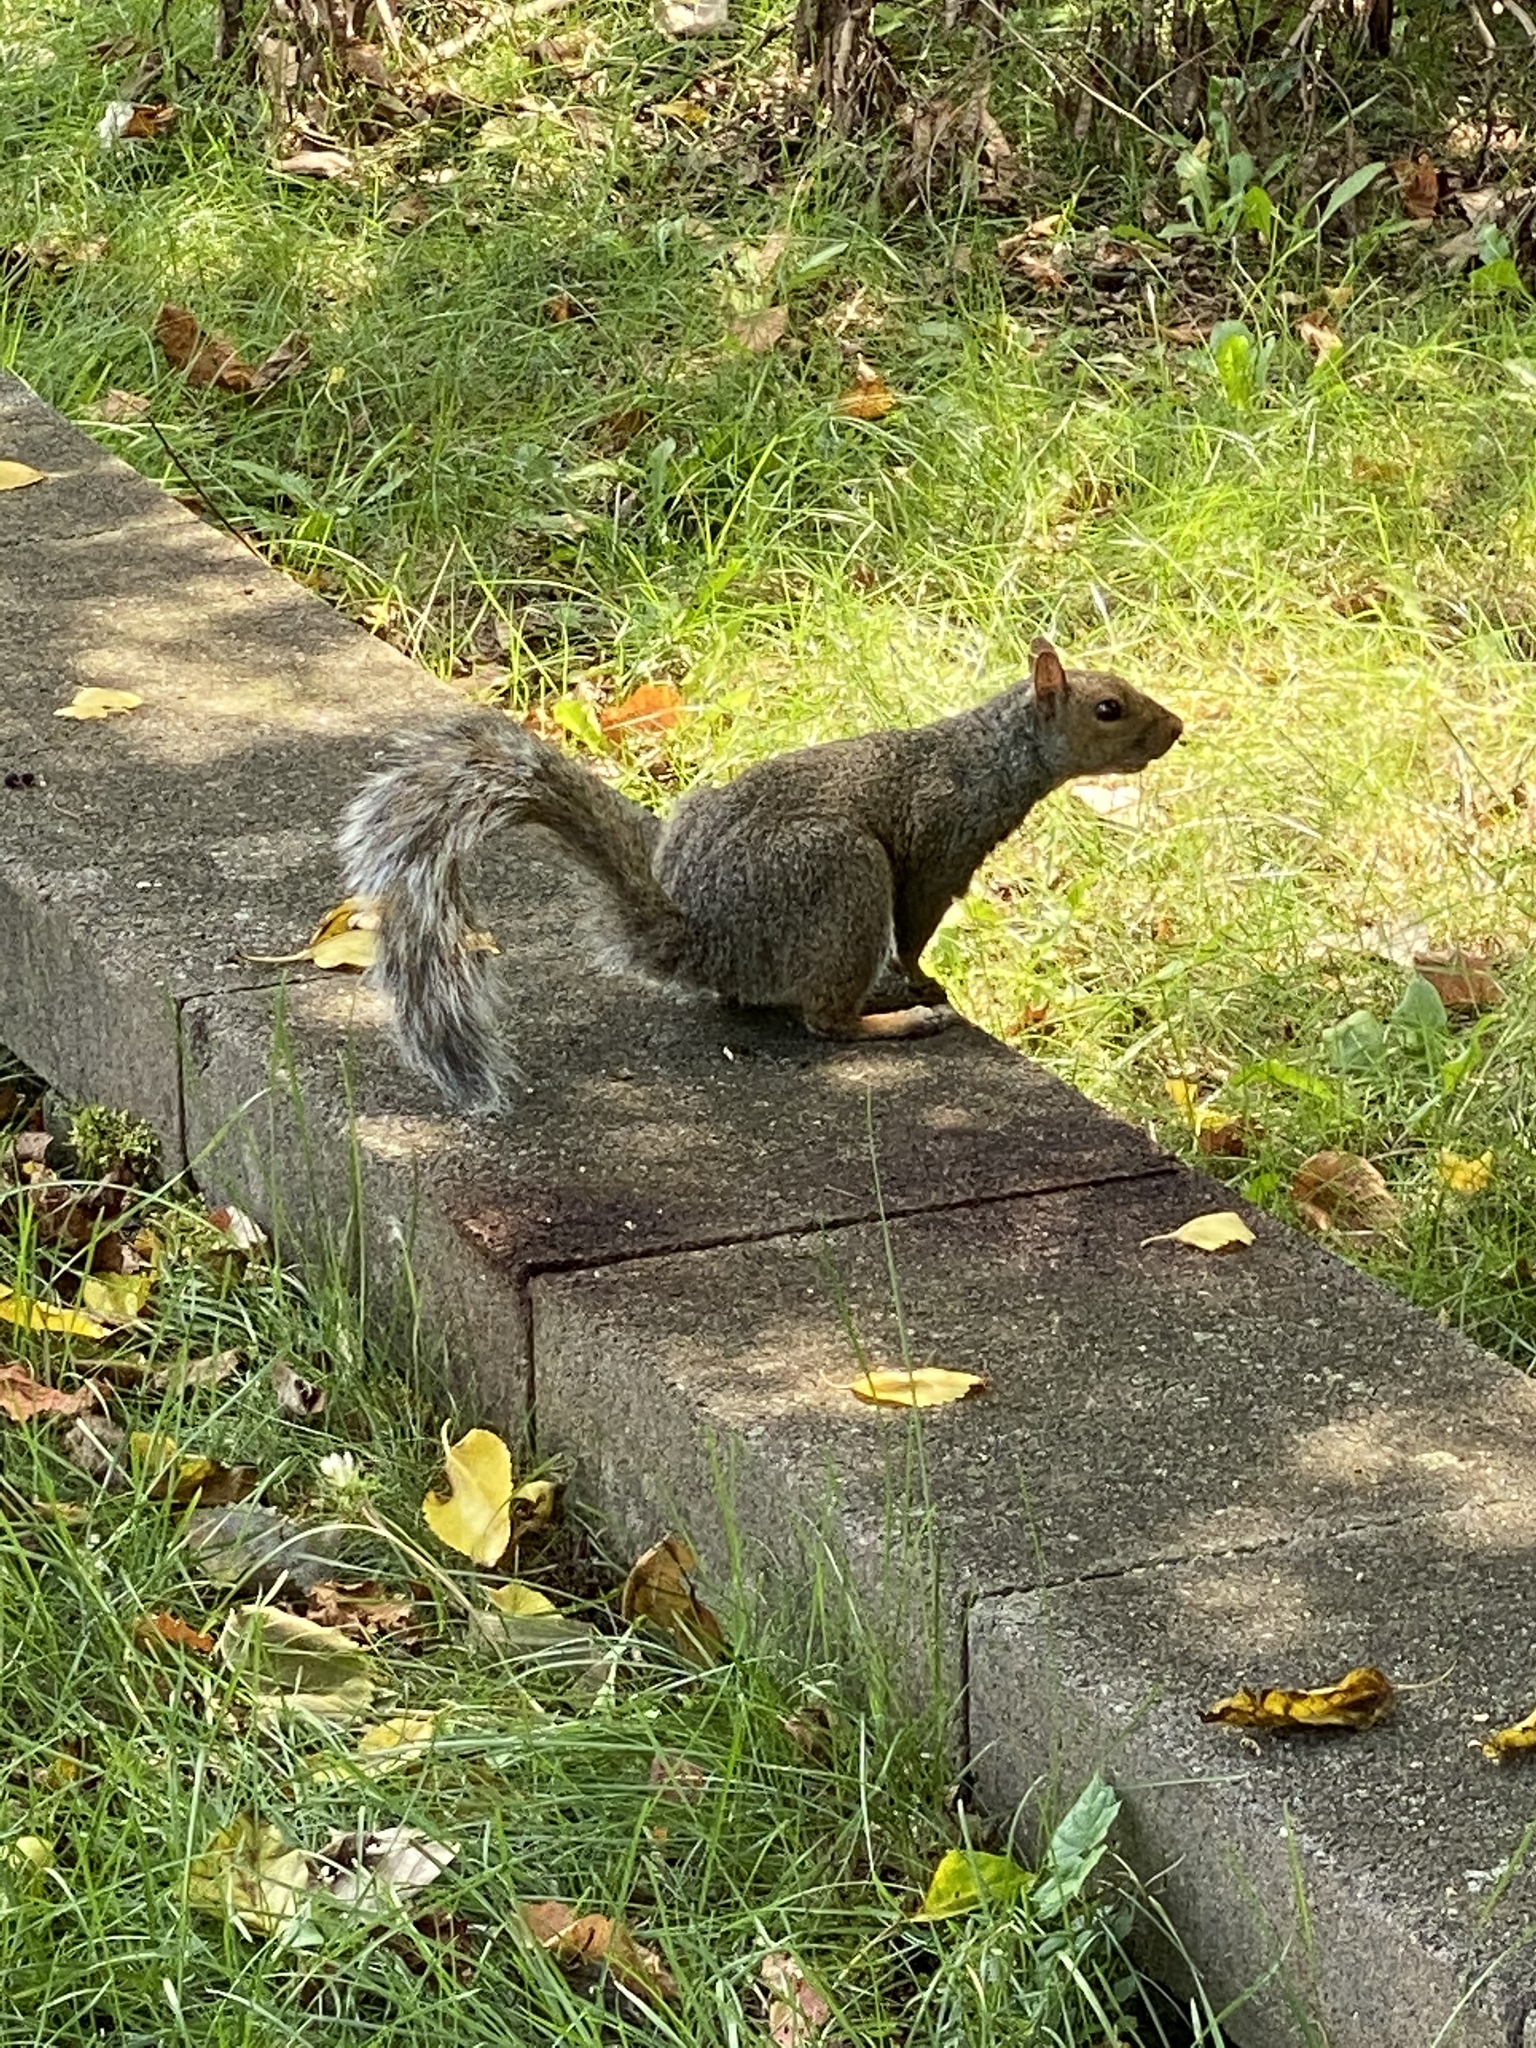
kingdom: Animalia
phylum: Chordata
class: Mammalia
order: Rodentia
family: Sciuridae
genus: Sciurus
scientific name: Sciurus carolinensis
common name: Eastern gray squirrel
